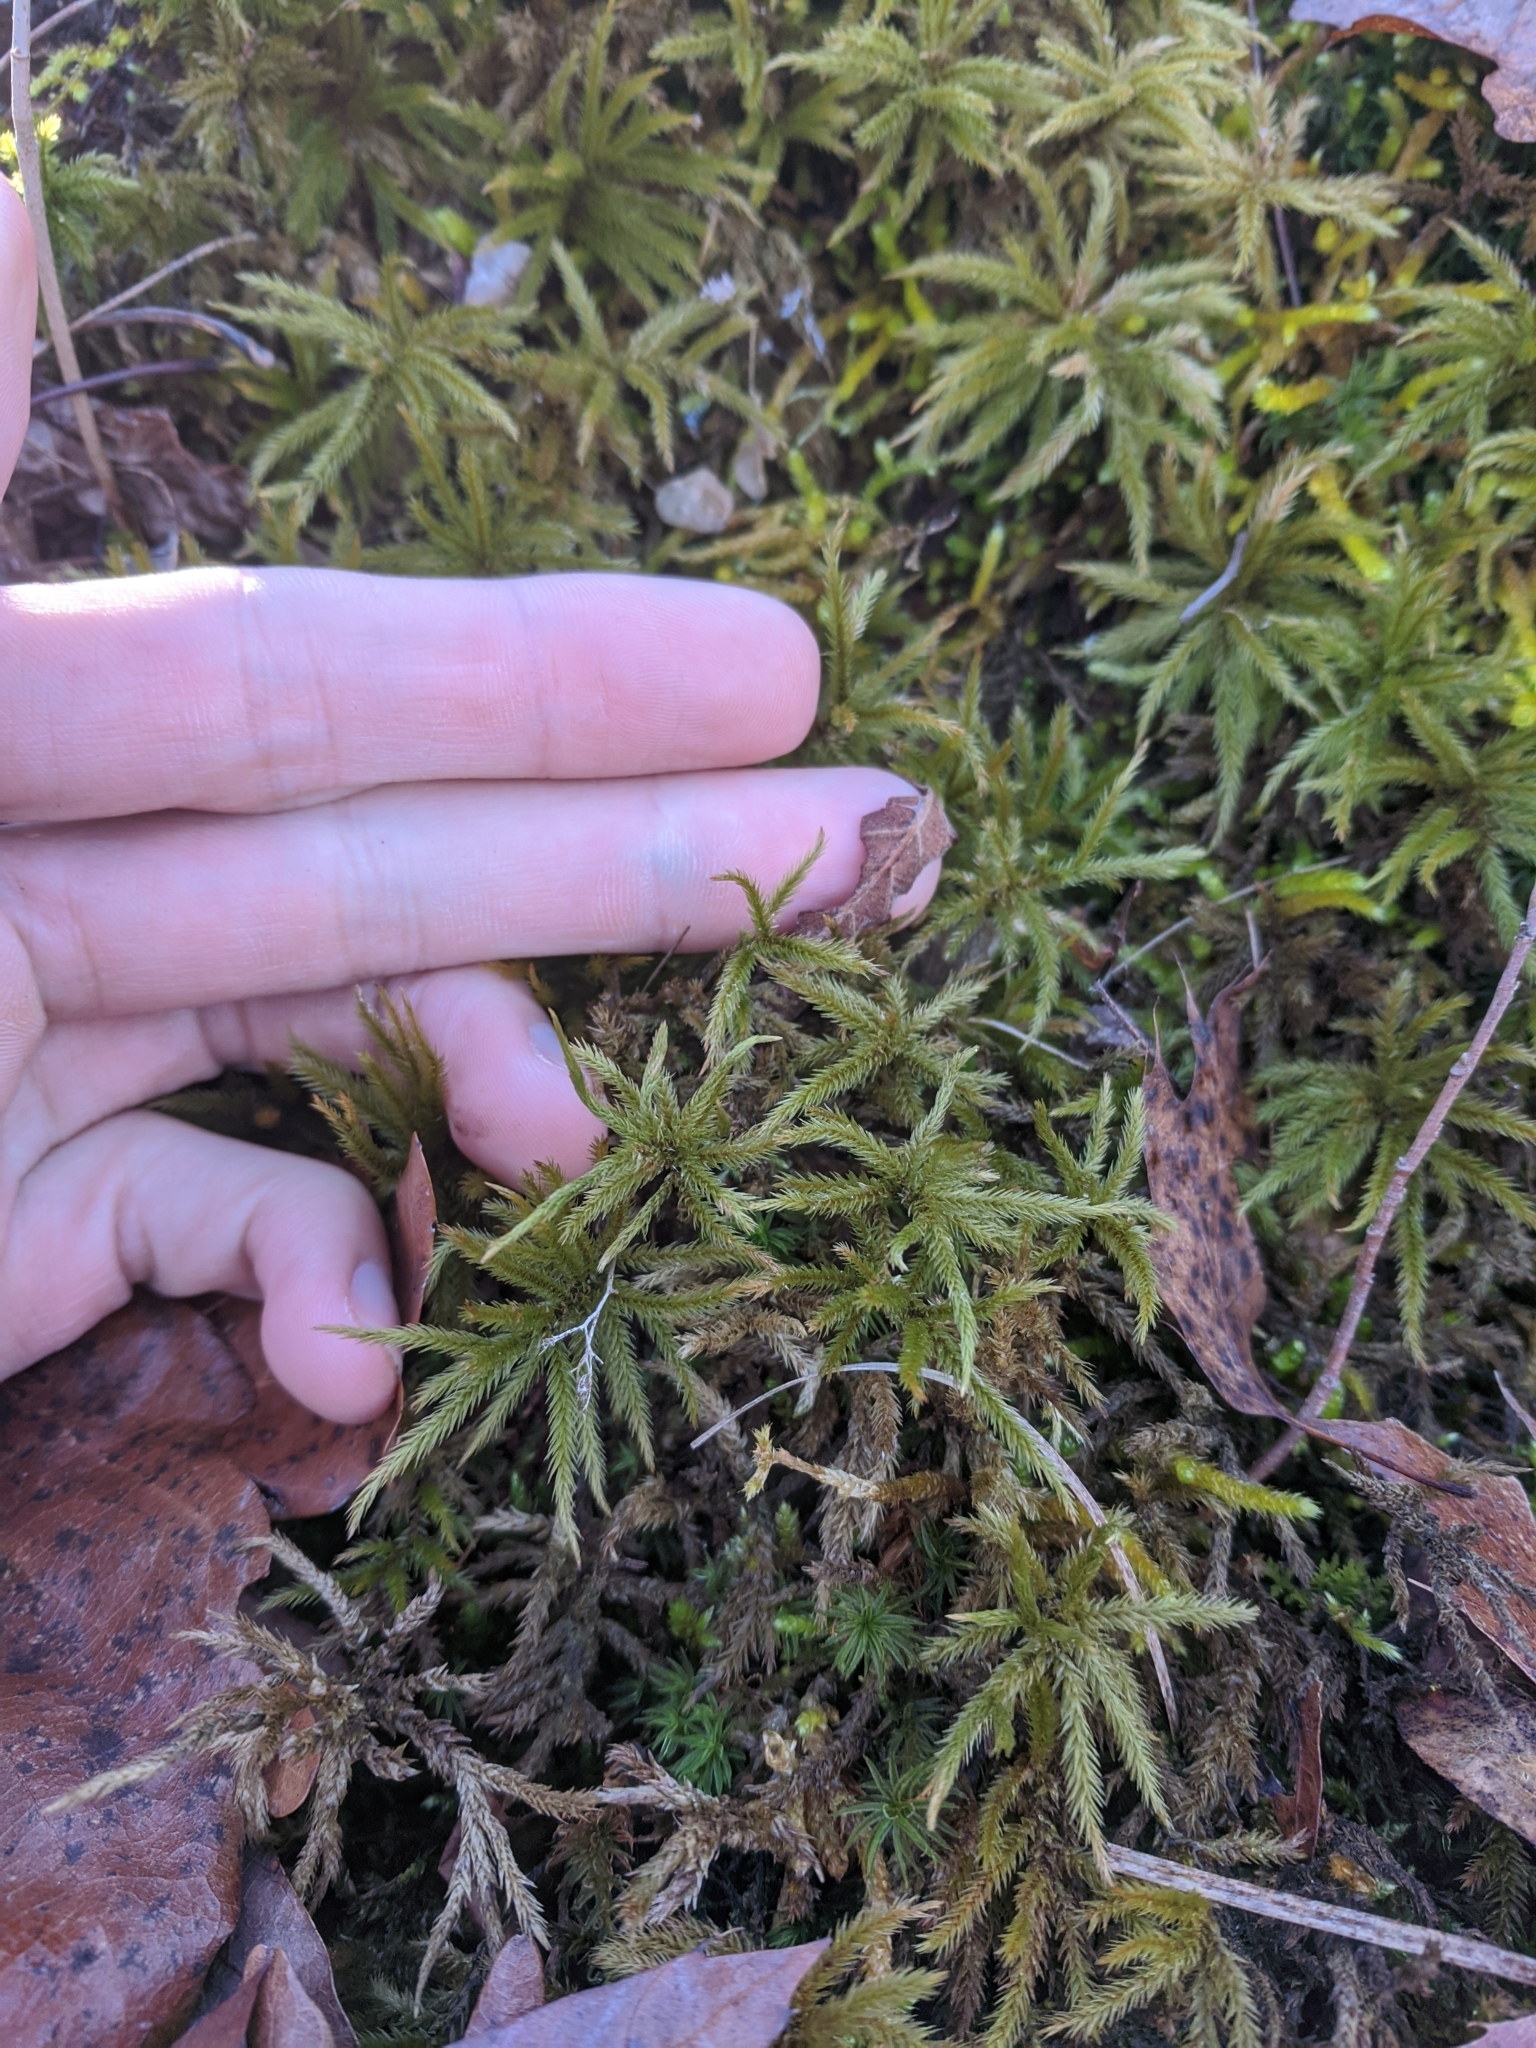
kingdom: Plantae
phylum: Bryophyta
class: Bryopsida
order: Hypnales
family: Climaciaceae
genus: Climacium
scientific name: Climacium americanum
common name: American tree moss
